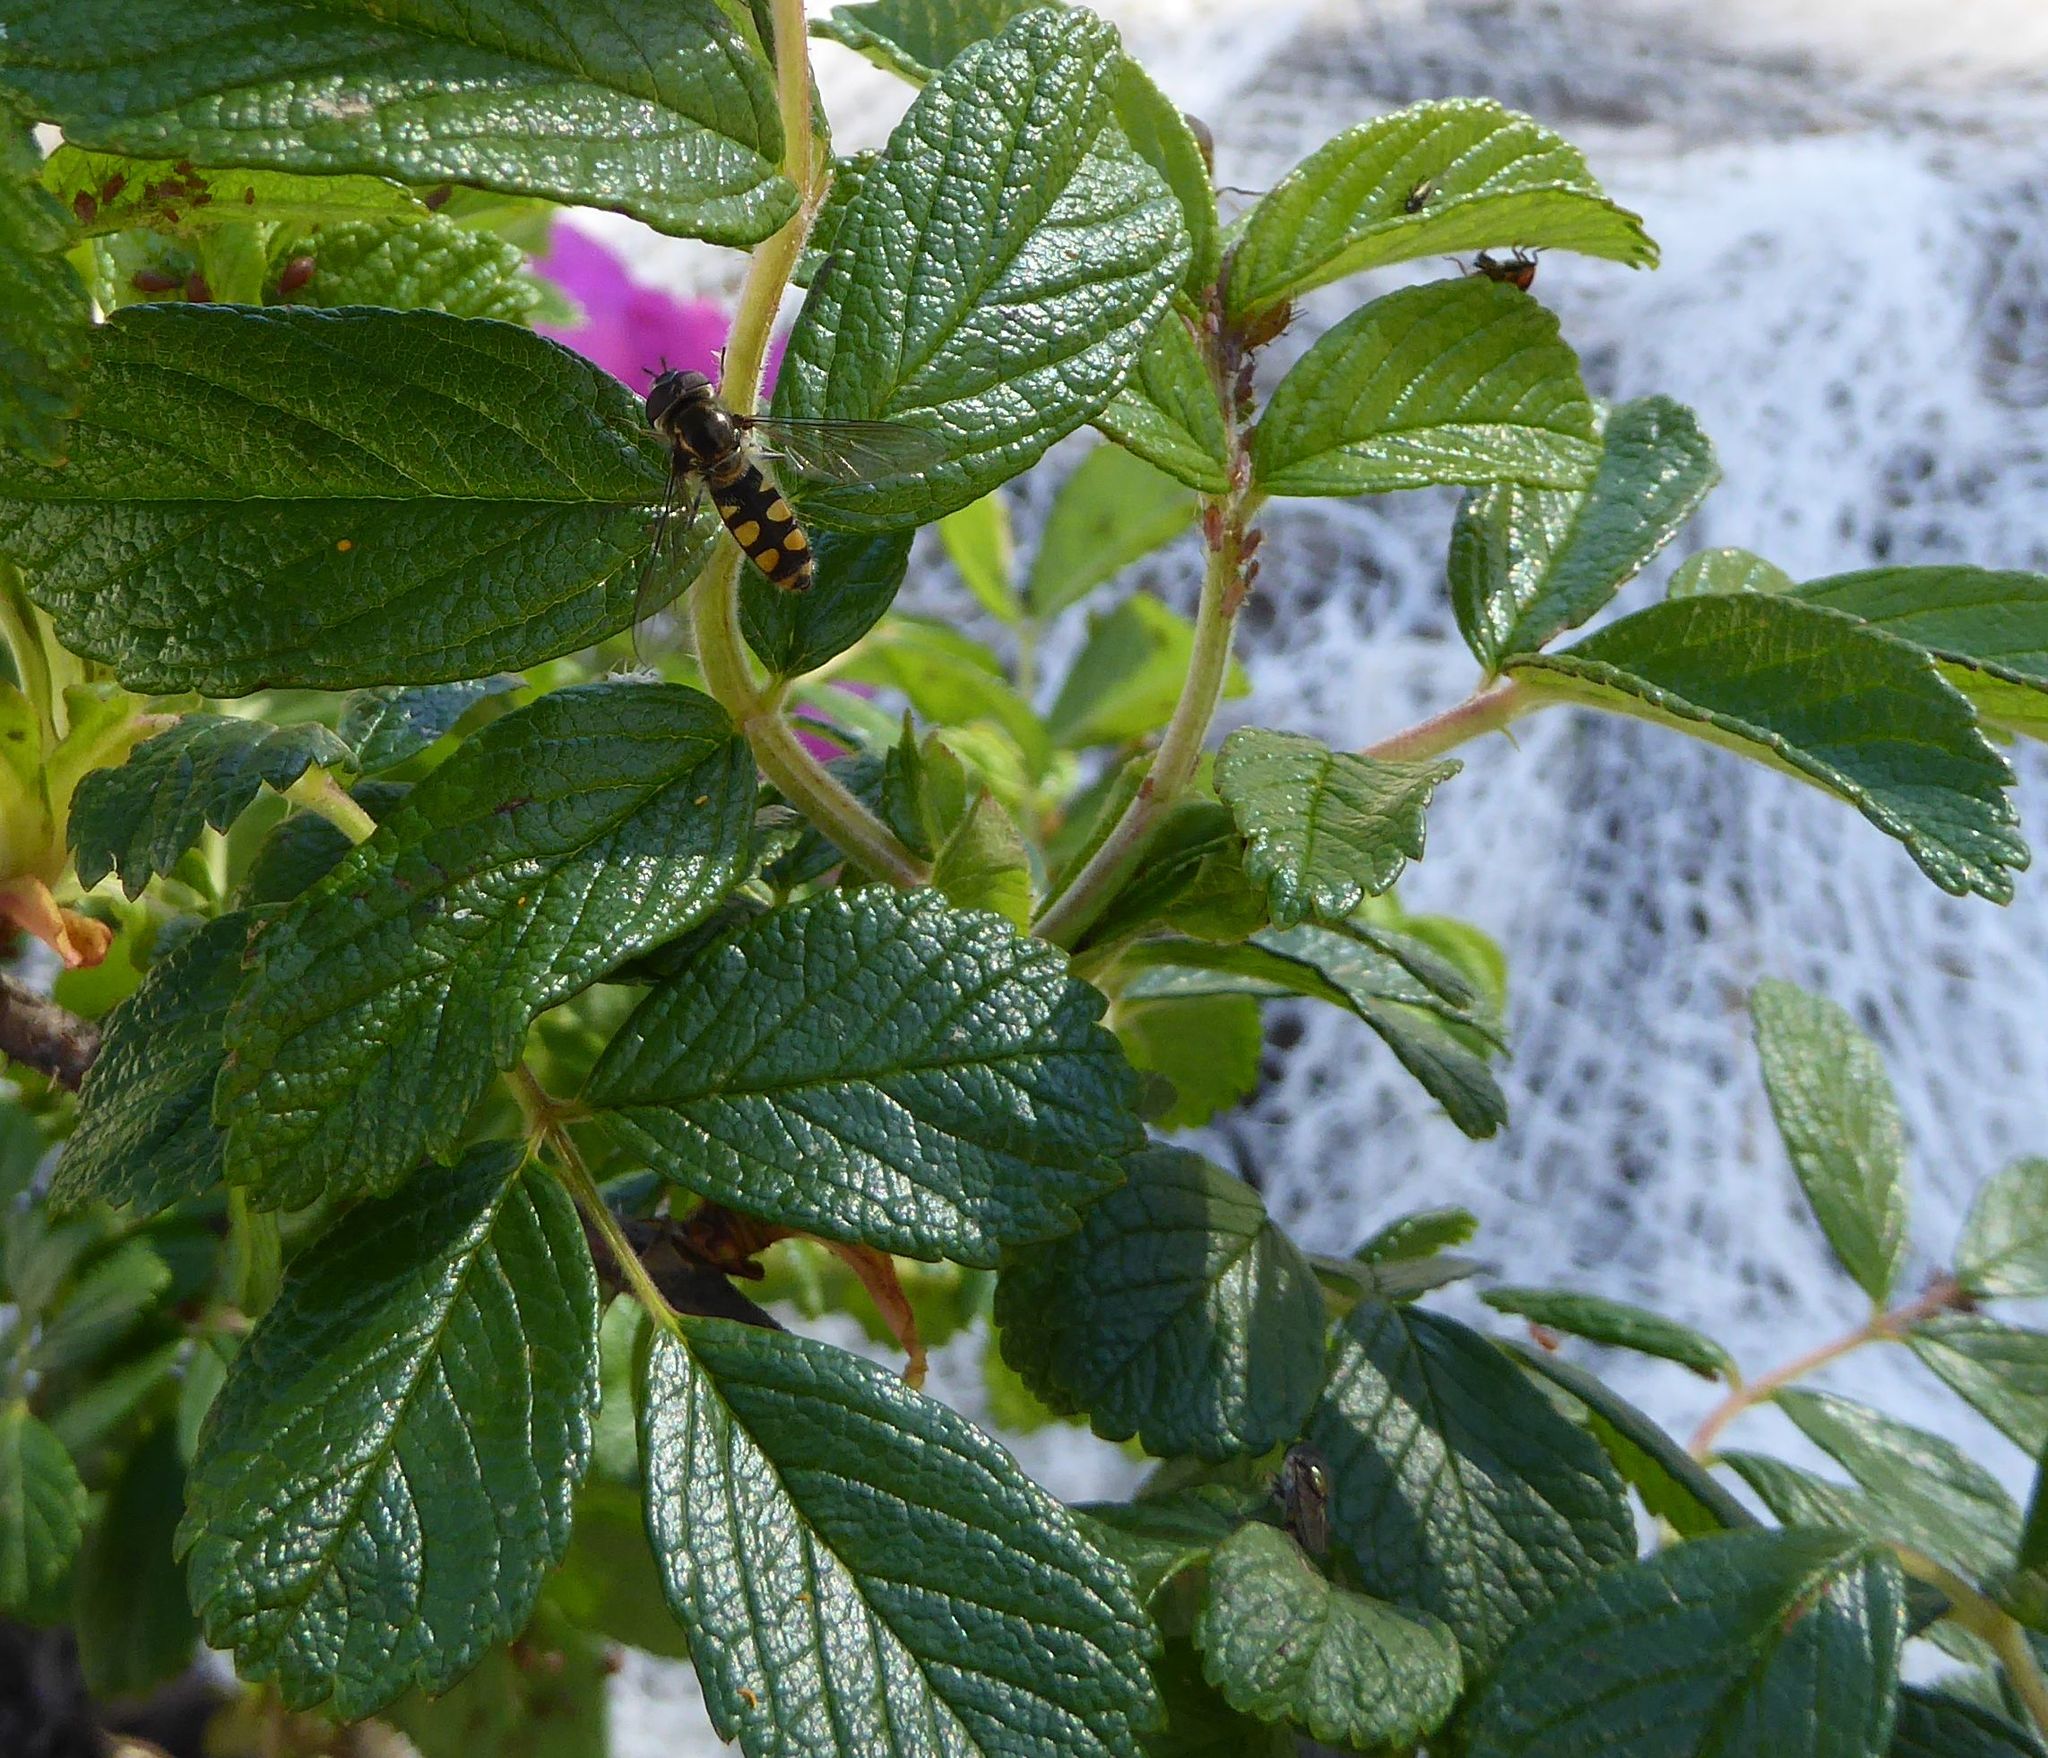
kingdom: Animalia
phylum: Arthropoda
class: Insecta
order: Diptera
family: Syrphidae
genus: Melangyna
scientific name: Melangyna viridiceps
